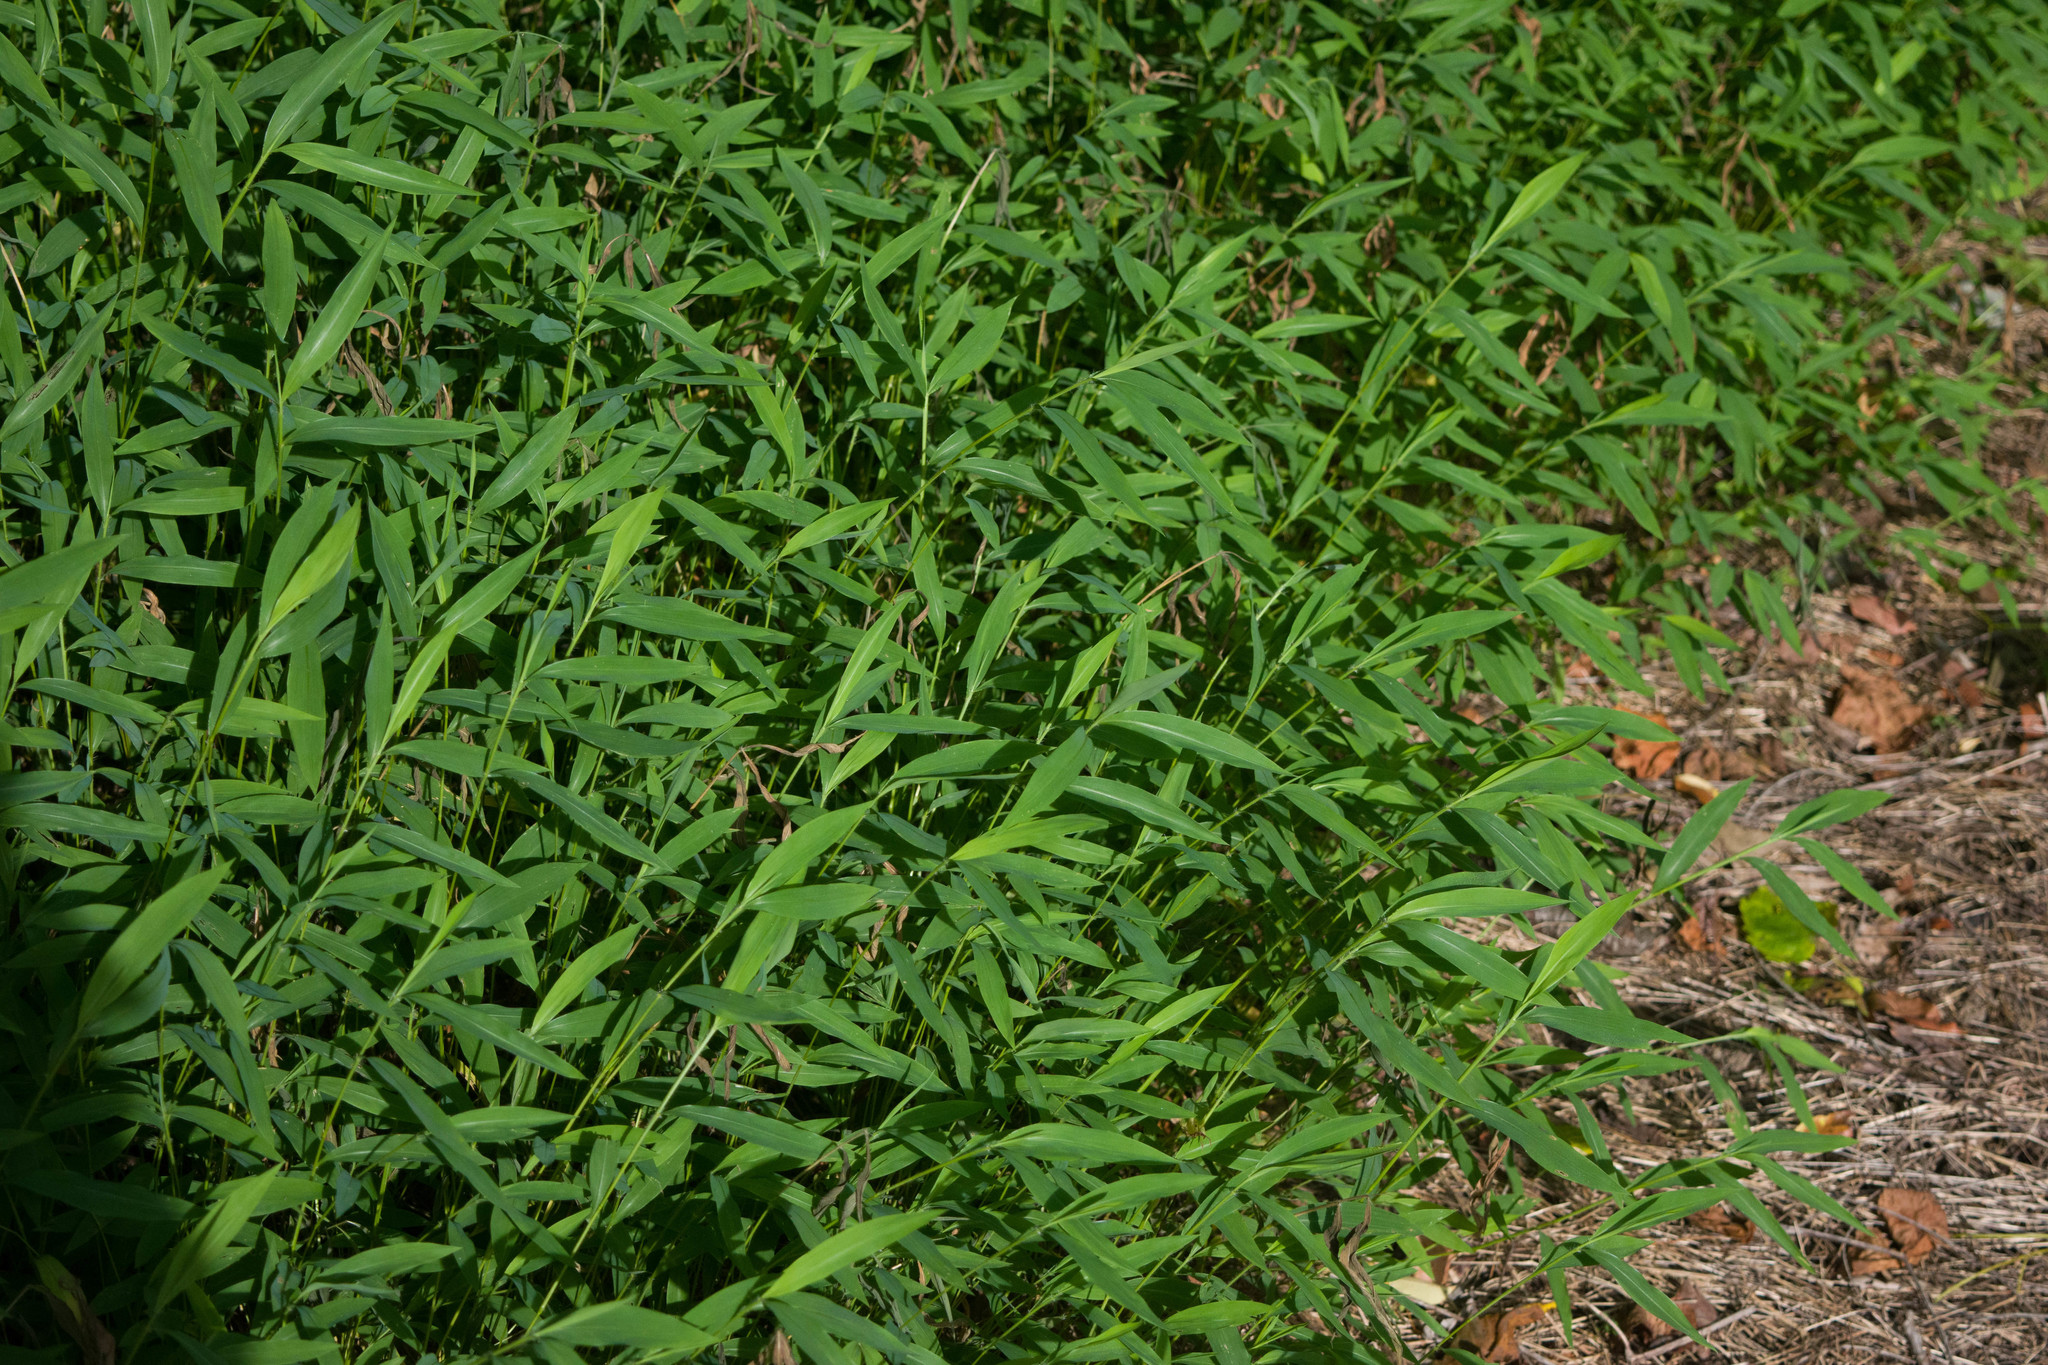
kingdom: Plantae
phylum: Tracheophyta
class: Liliopsida
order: Poales
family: Poaceae
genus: Microstegium
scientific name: Microstegium vimineum
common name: Japanese stiltgrass
